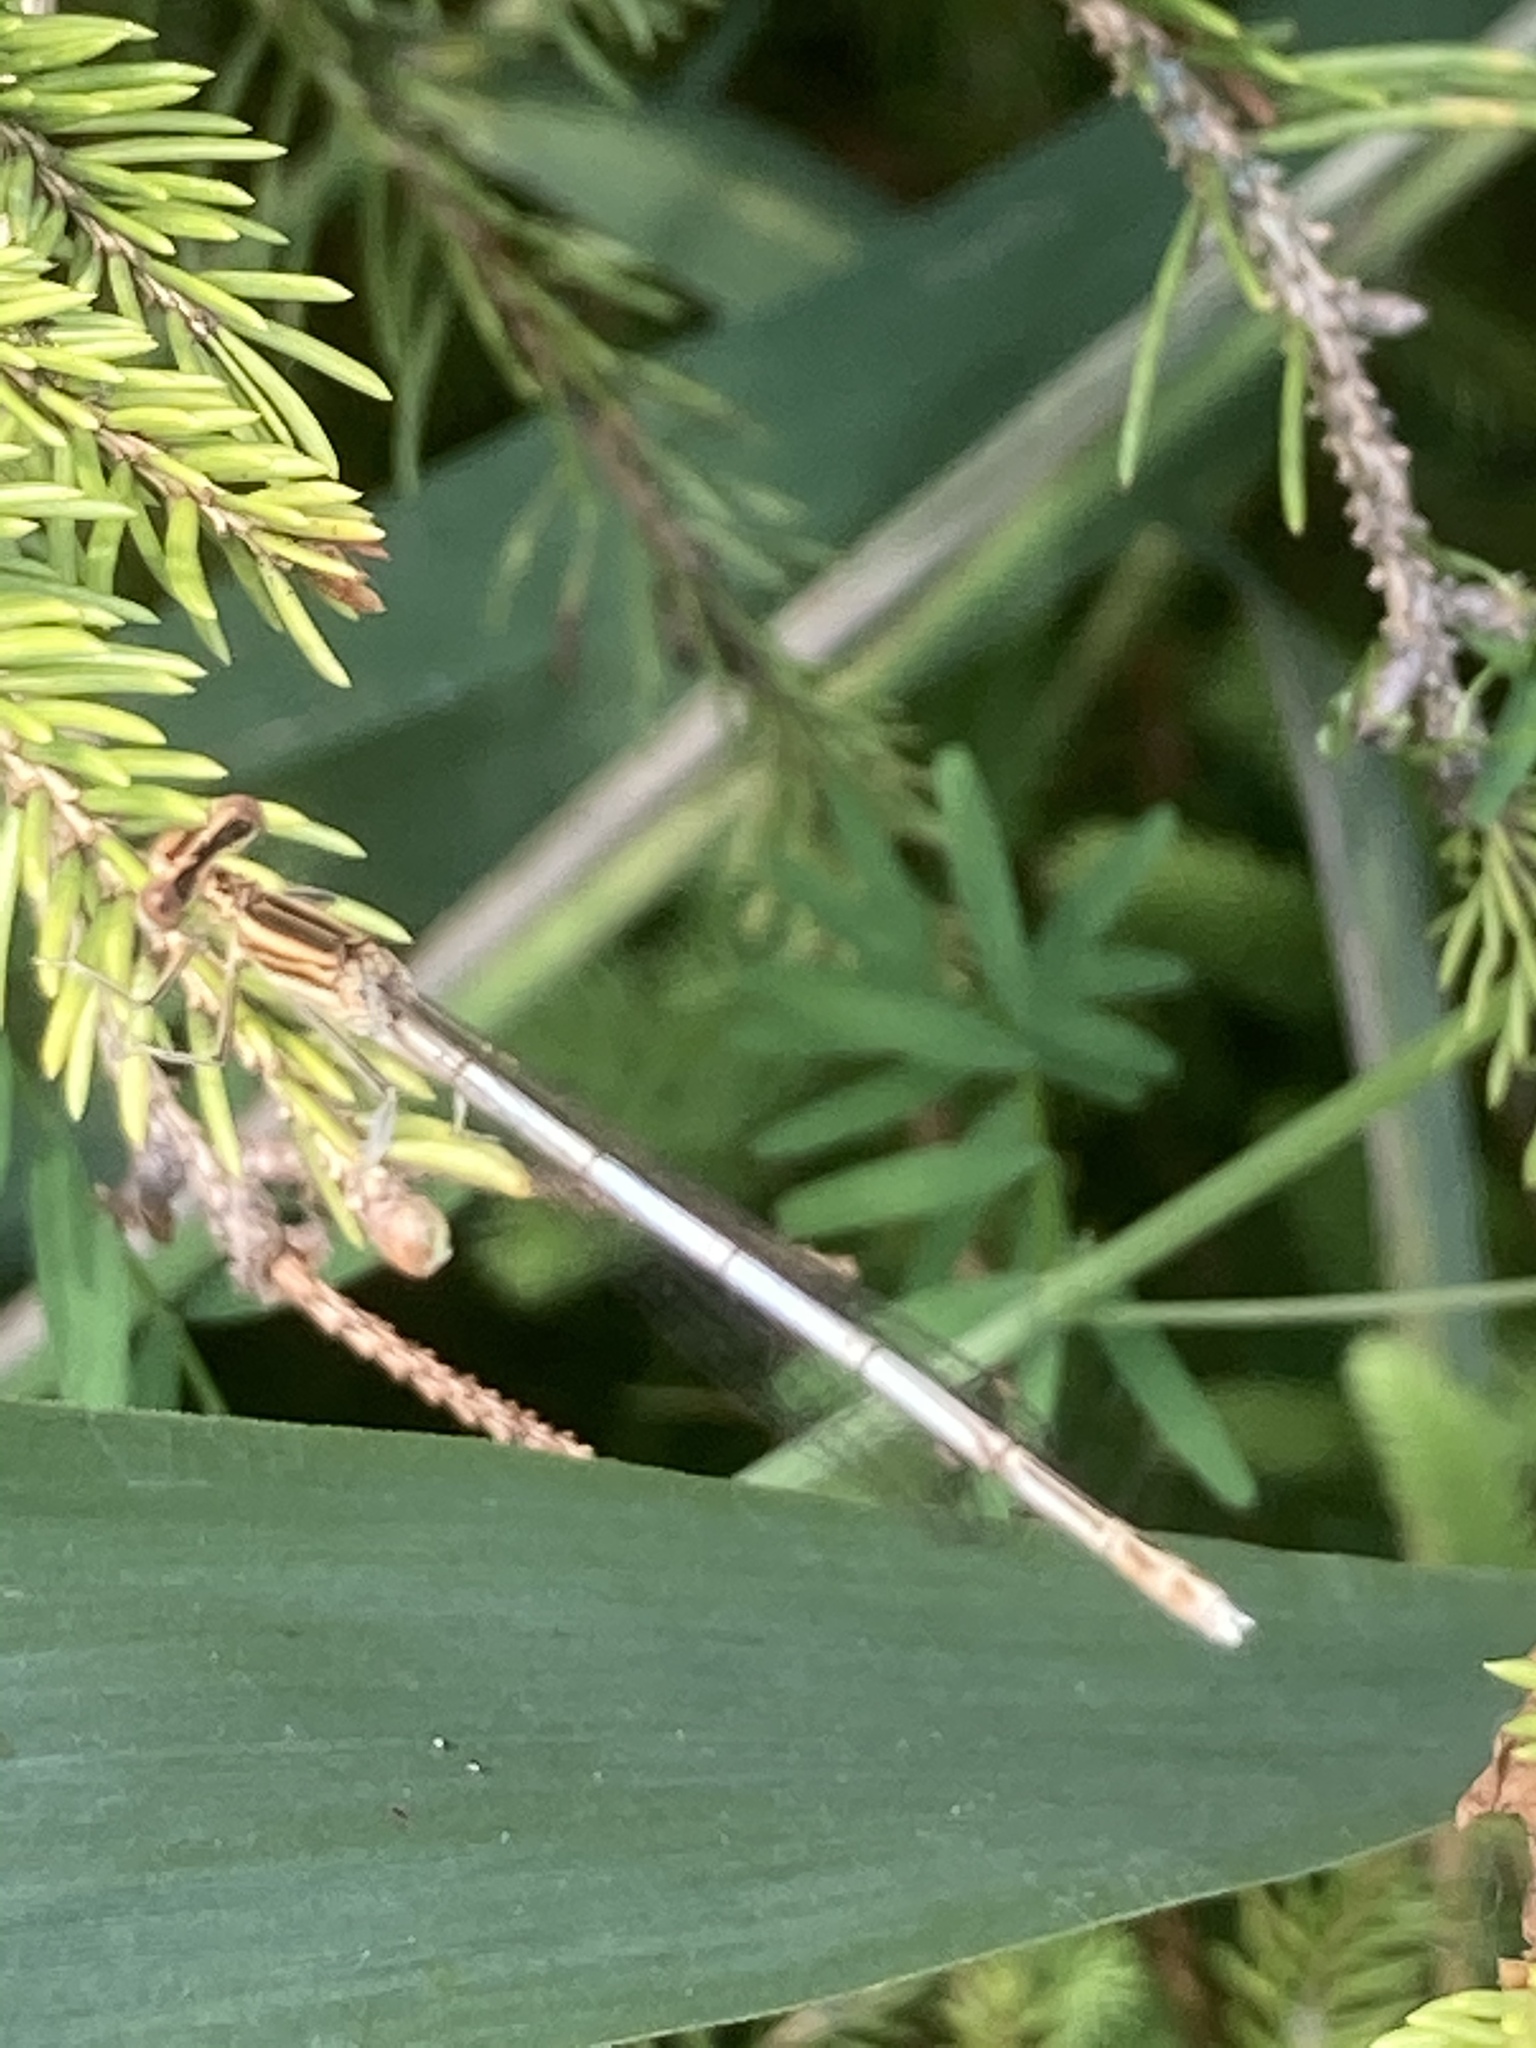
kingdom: Animalia
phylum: Arthropoda
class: Insecta
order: Odonata
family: Platycnemididae
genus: Platycnemis
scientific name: Platycnemis pennipes
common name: White-legged damselfly
